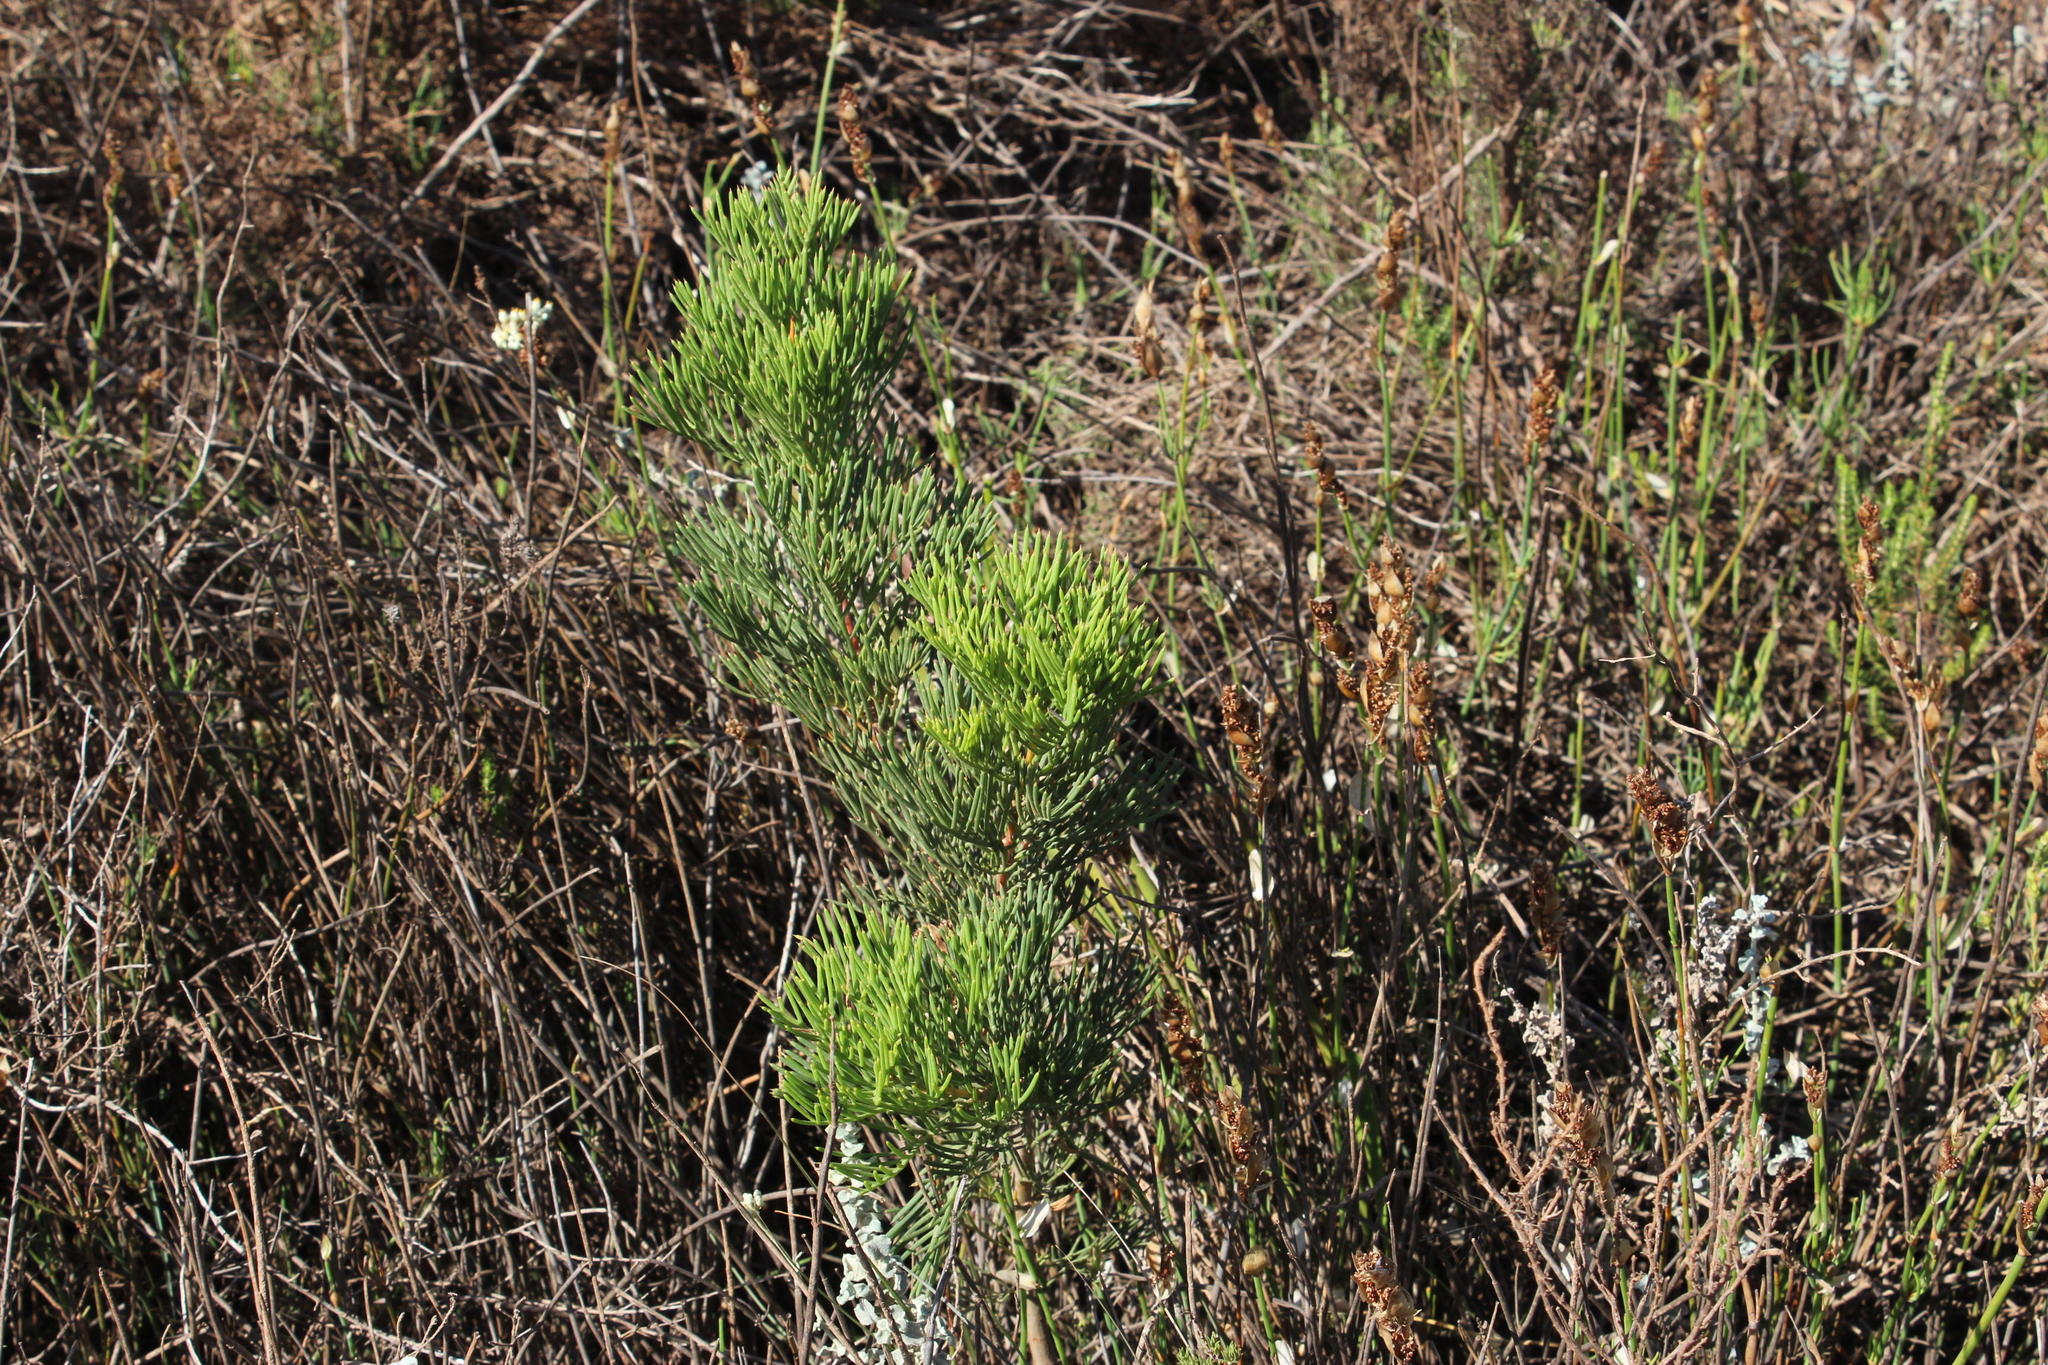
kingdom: Plantae
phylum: Tracheophyta
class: Magnoliopsida
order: Proteales
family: Proteaceae
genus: Hakea
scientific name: Hakea drupacea
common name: Sweet hakea
